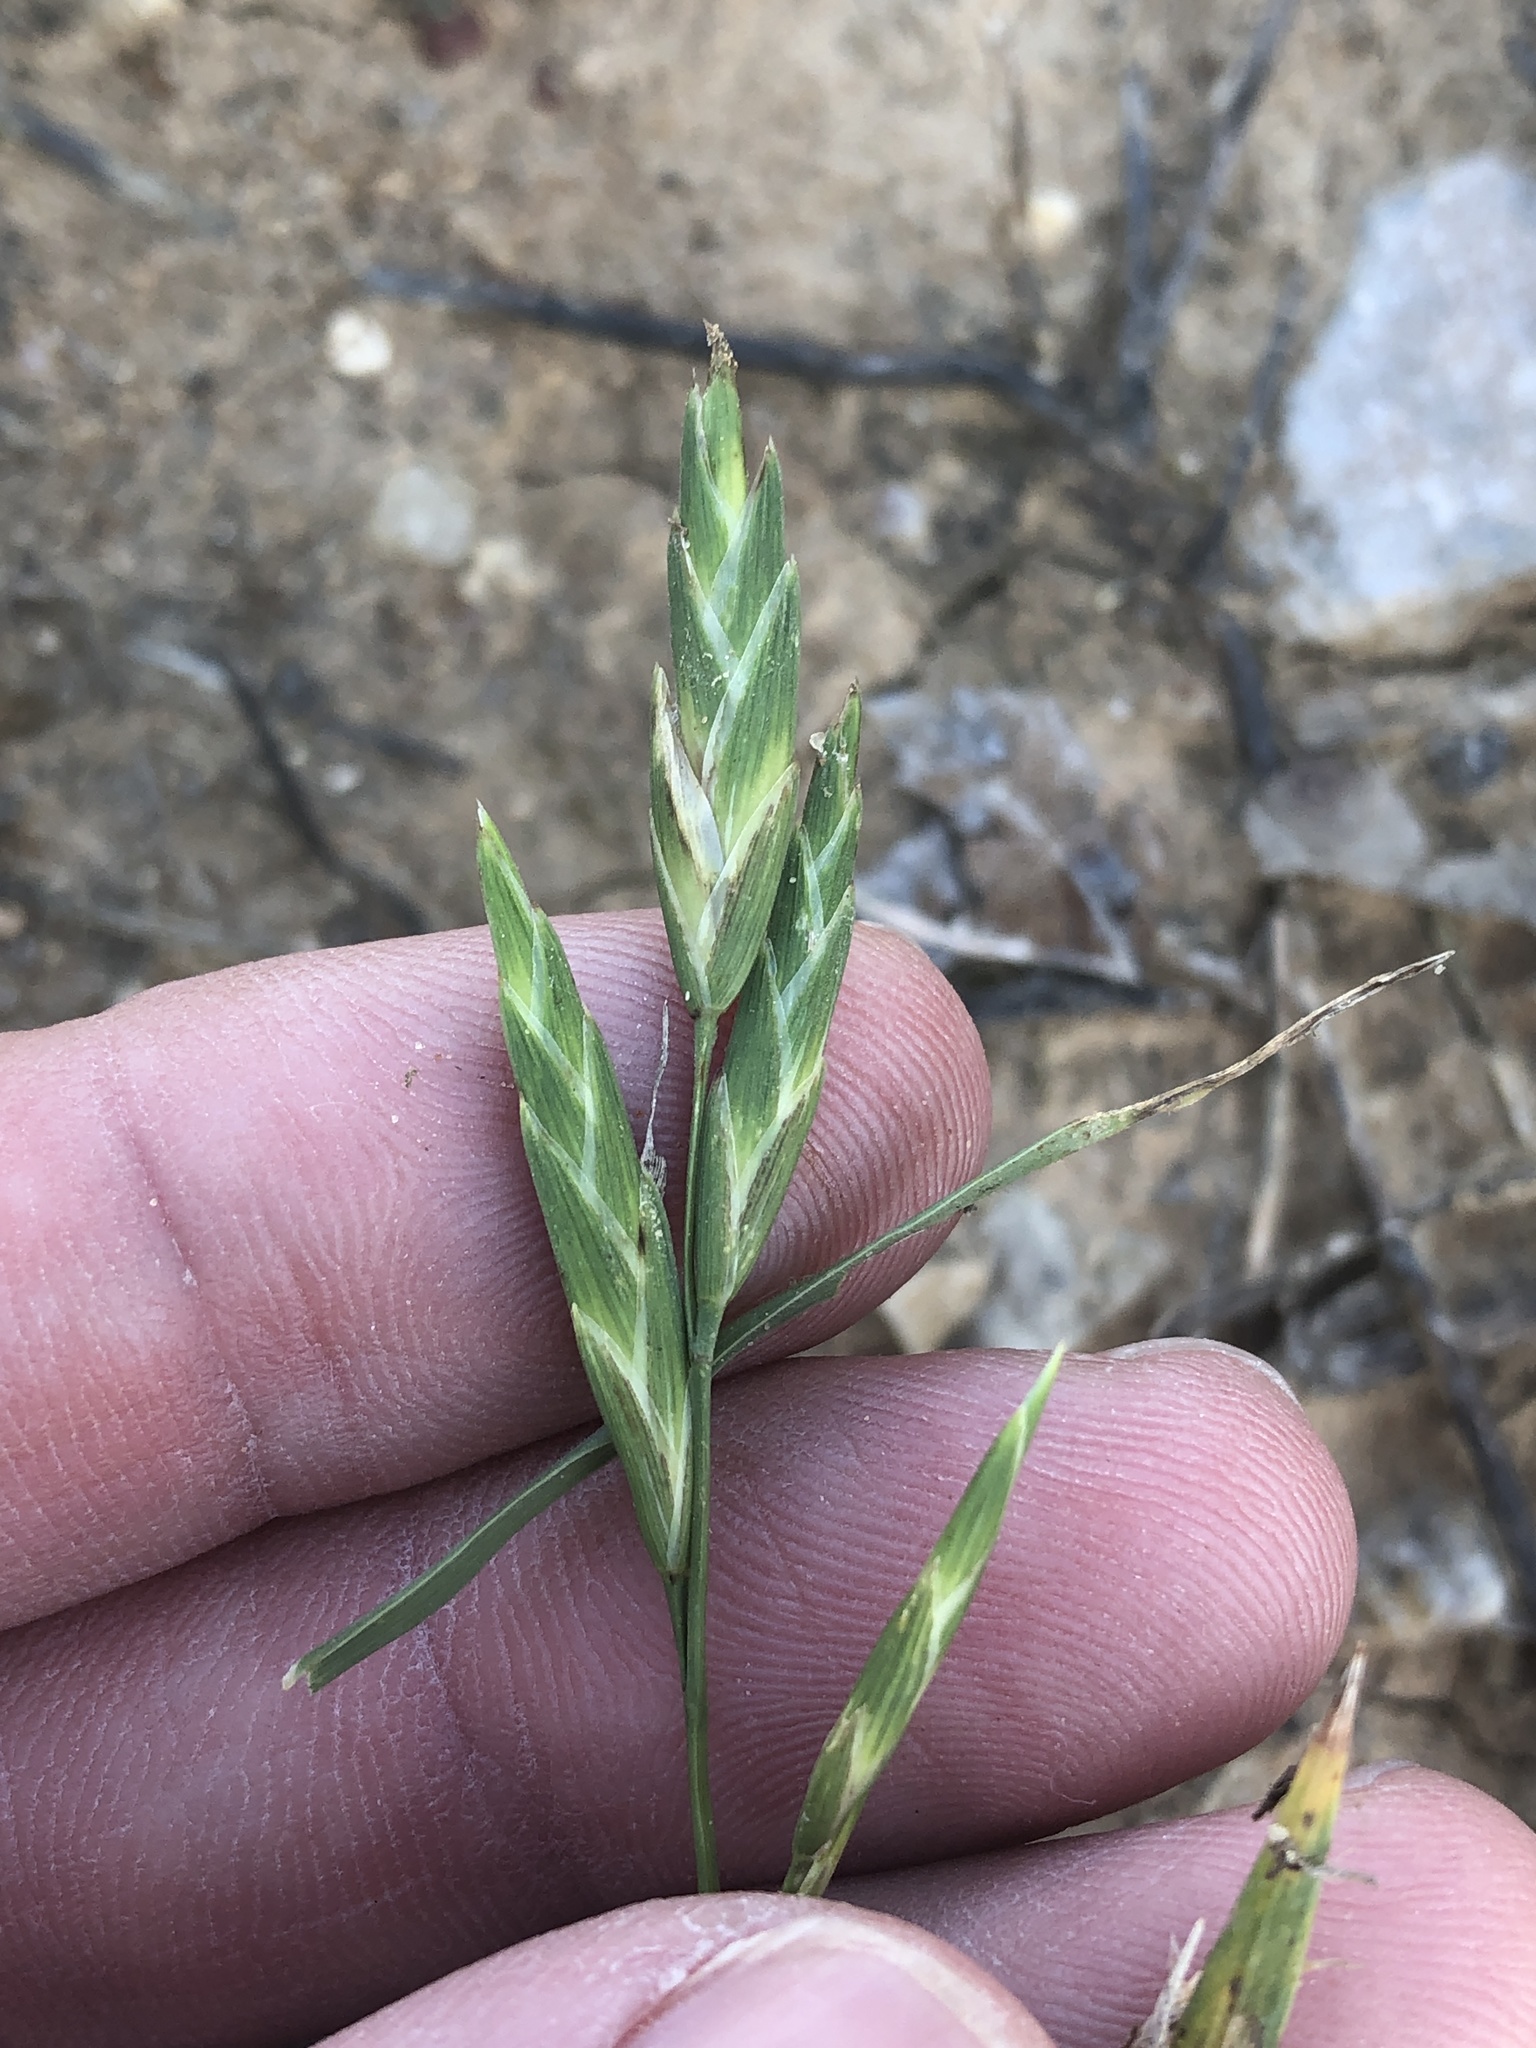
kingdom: Plantae
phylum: Tracheophyta
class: Liliopsida
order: Poales
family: Poaceae
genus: Bromus
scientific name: Bromus catharticus
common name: Rescuegrass
